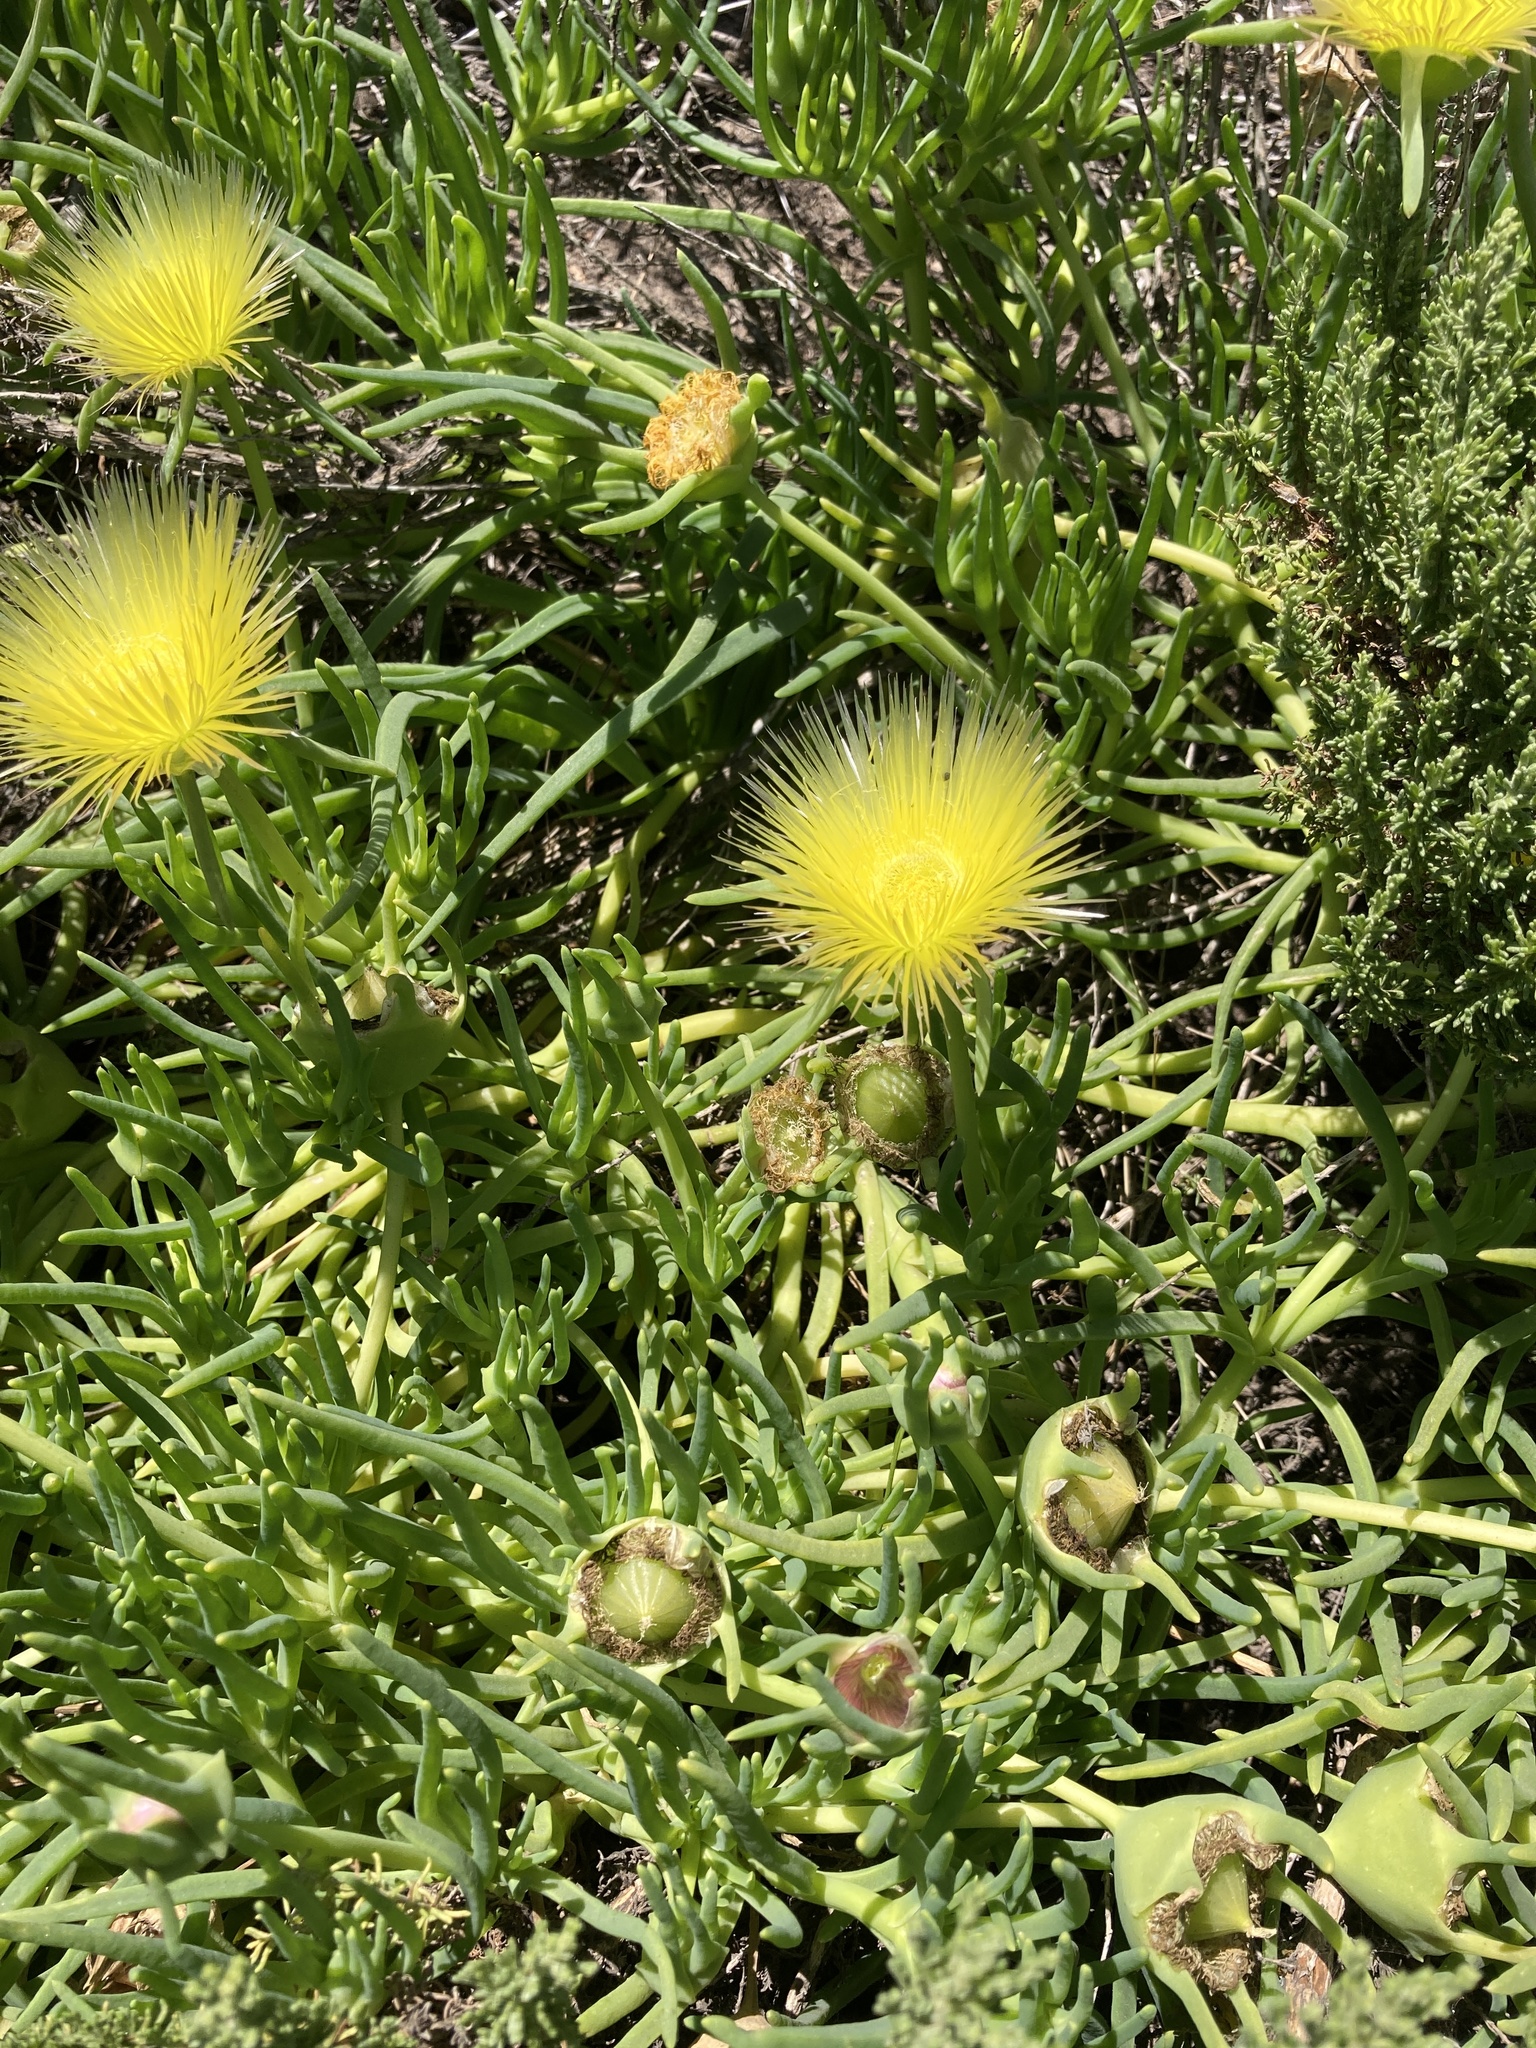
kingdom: Plantae
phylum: Tracheophyta
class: Magnoliopsida
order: Caryophyllales
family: Aizoaceae
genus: Conicosia
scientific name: Conicosia pugioniformis
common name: Narrow-leaved iceplant
